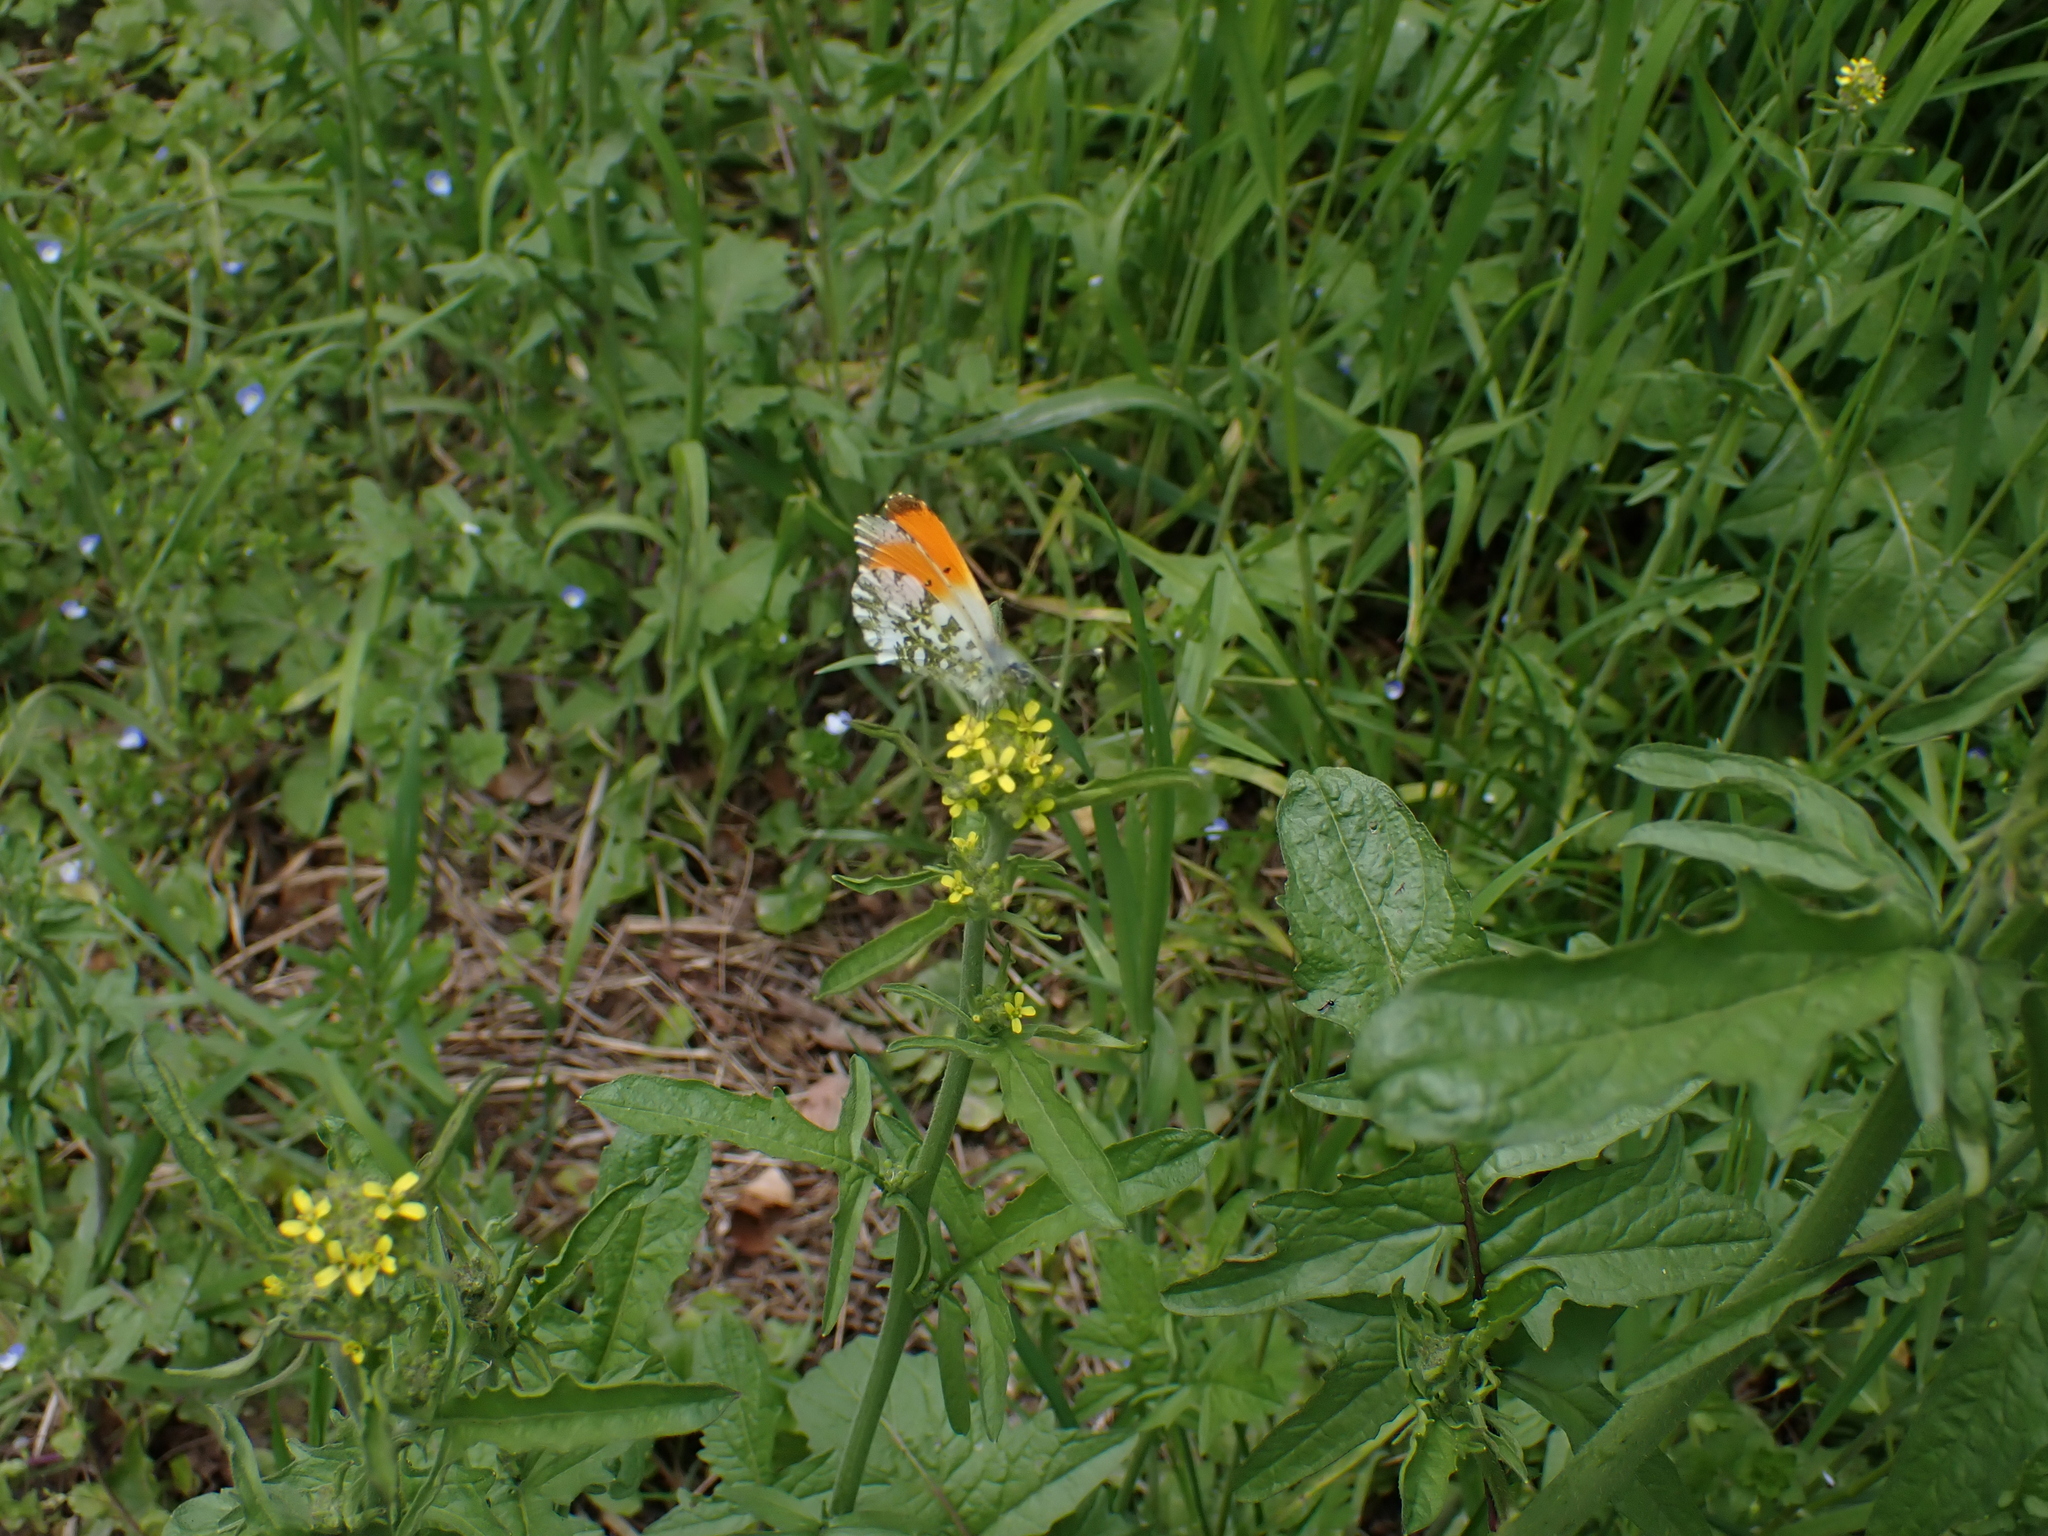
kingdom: Animalia
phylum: Arthropoda
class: Insecta
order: Lepidoptera
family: Pieridae
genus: Anthocharis
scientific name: Anthocharis cardamines
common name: Orange-tip
